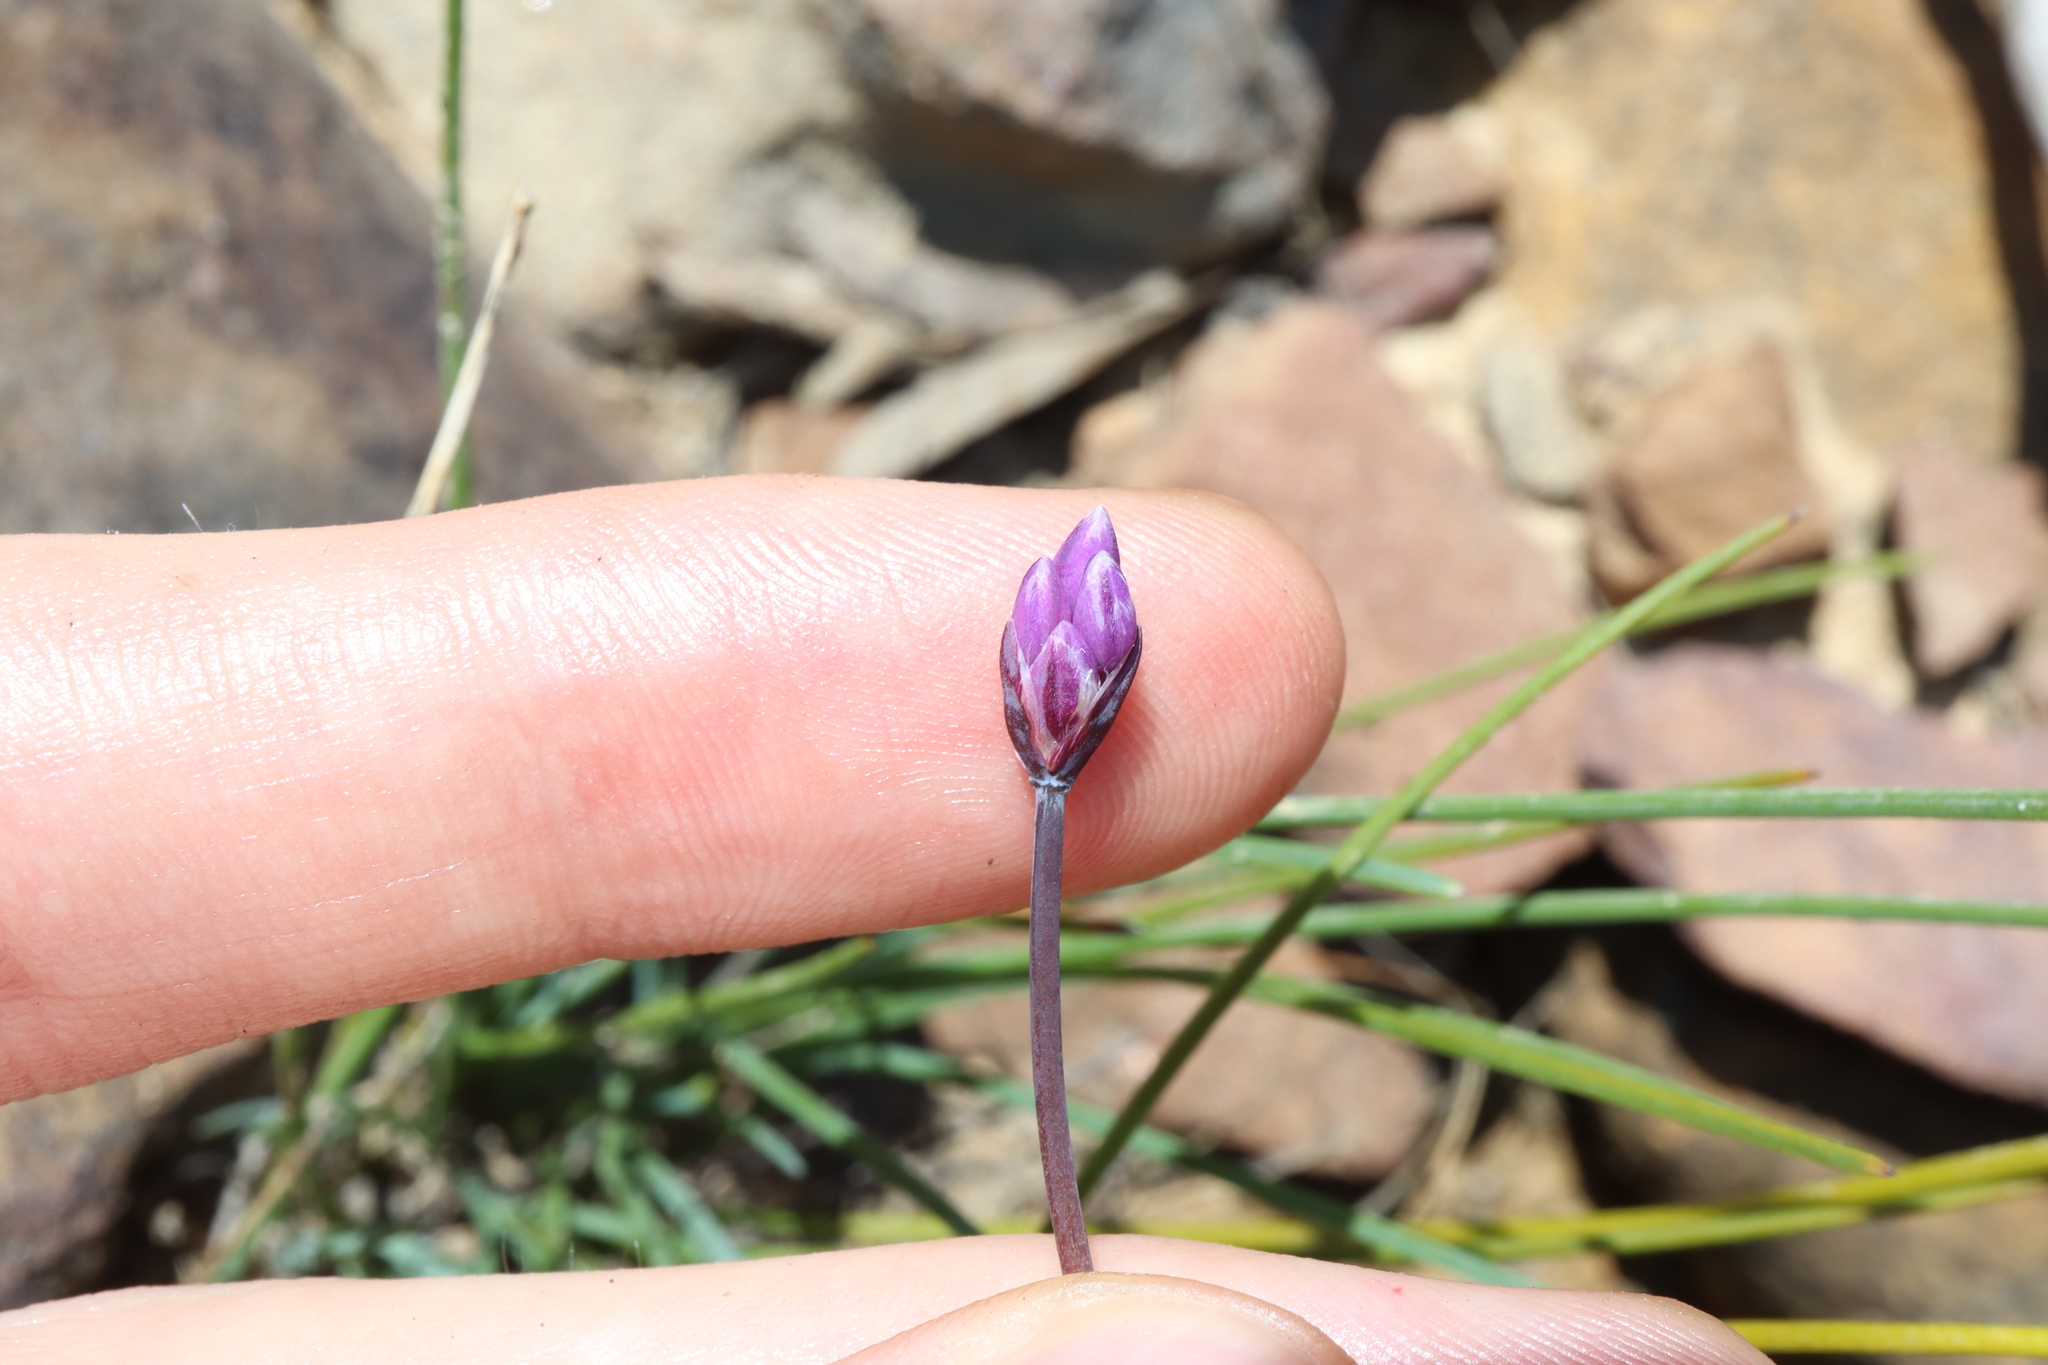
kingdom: Plantae
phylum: Tracheophyta
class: Liliopsida
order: Asparagales
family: Asparagaceae
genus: Sowerbaea
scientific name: Sowerbaea juncea
